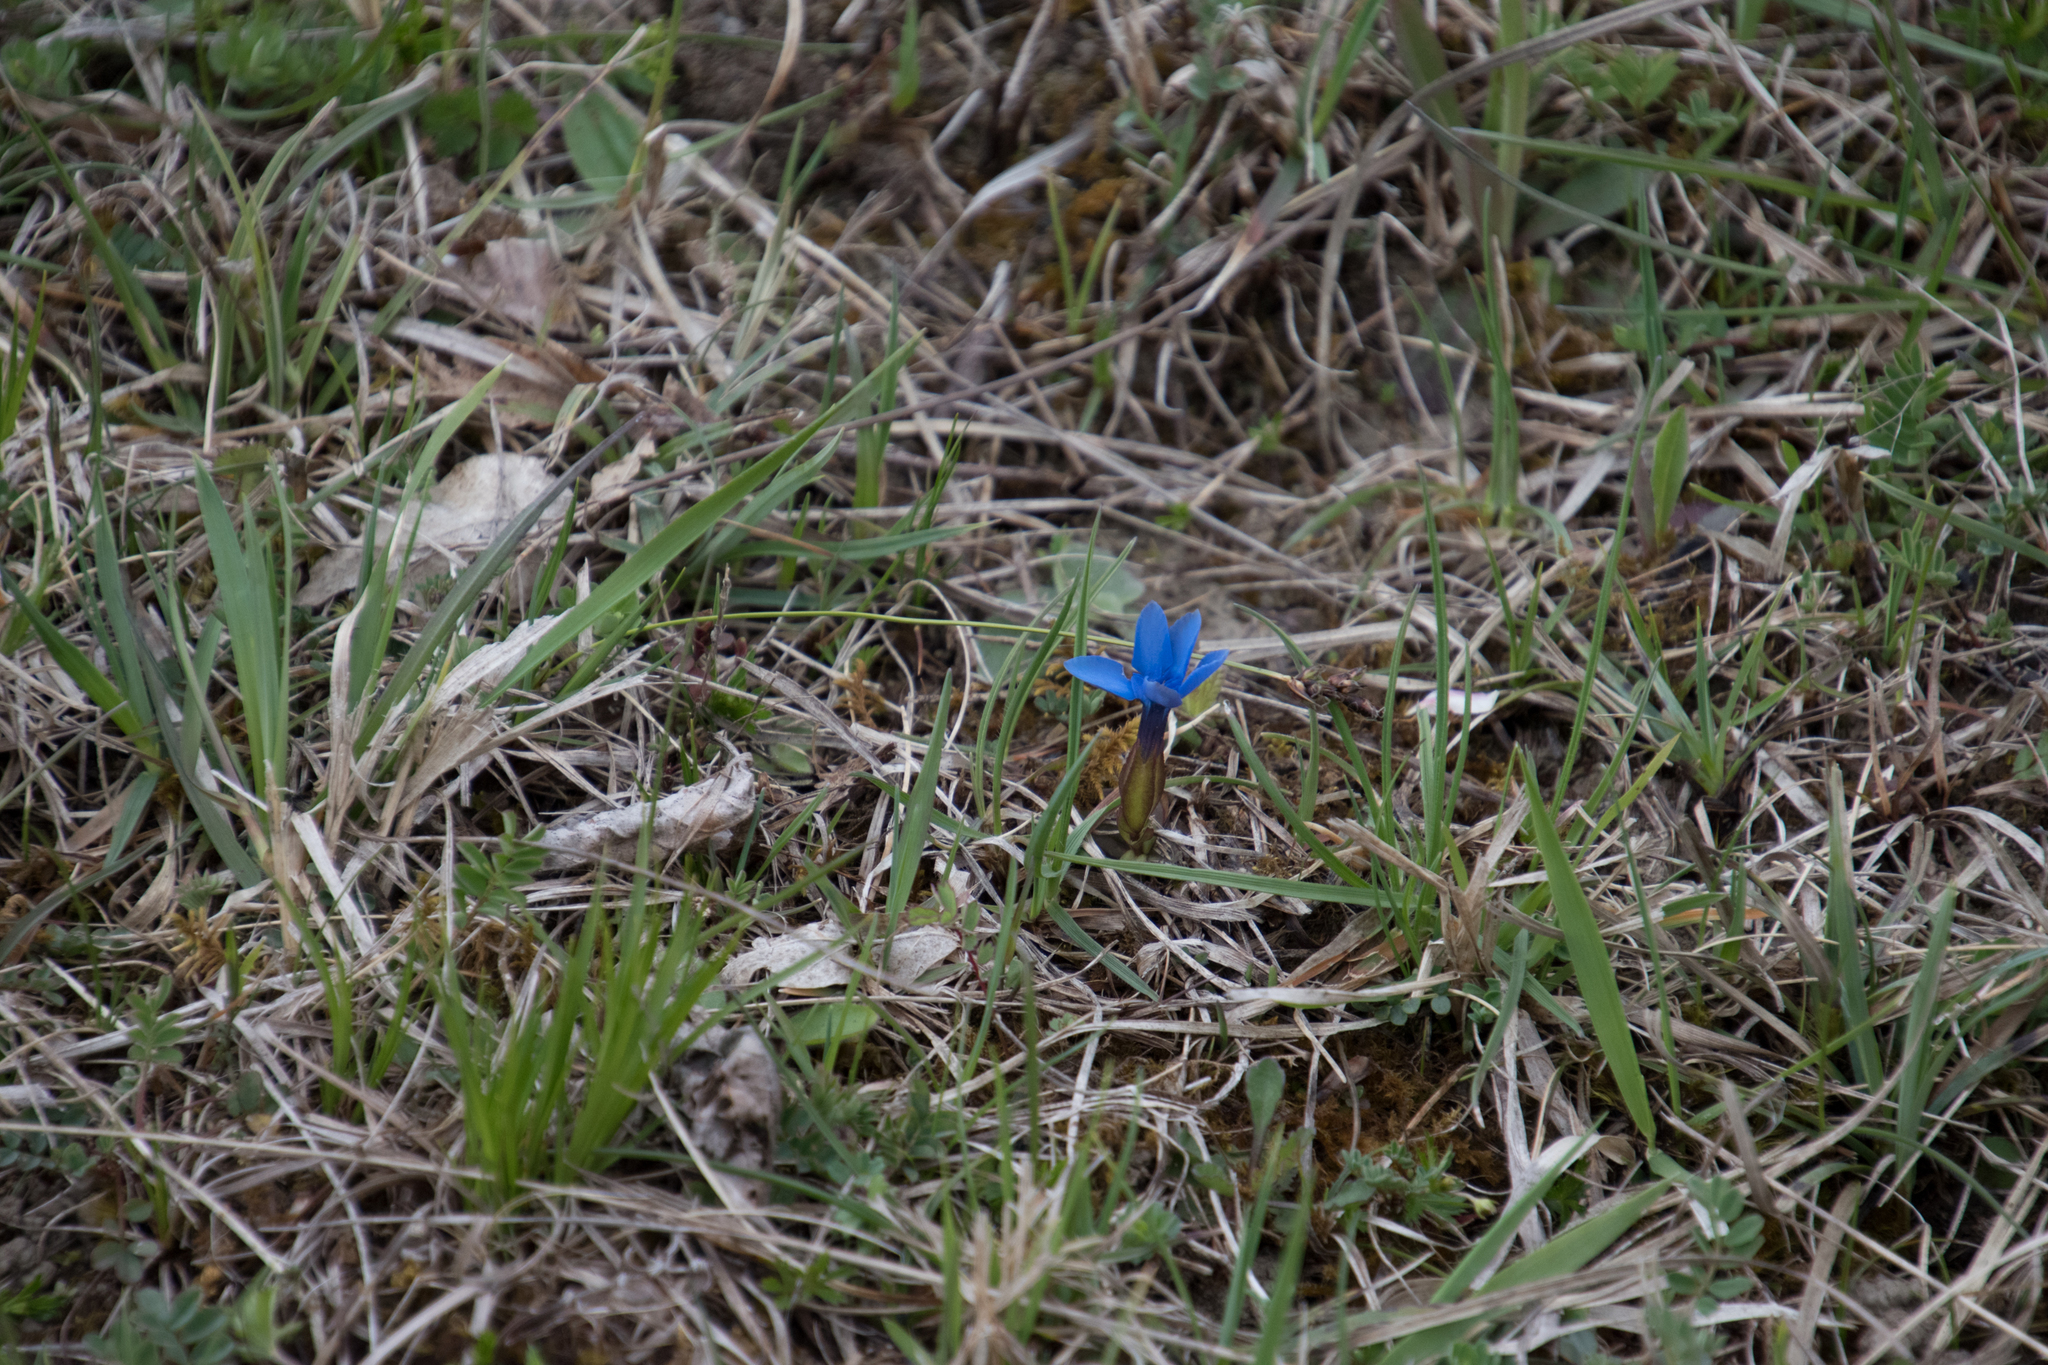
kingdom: Plantae
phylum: Tracheophyta
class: Magnoliopsida
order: Gentianales
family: Gentianaceae
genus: Gentiana
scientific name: Gentiana verna
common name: Spring gentian
